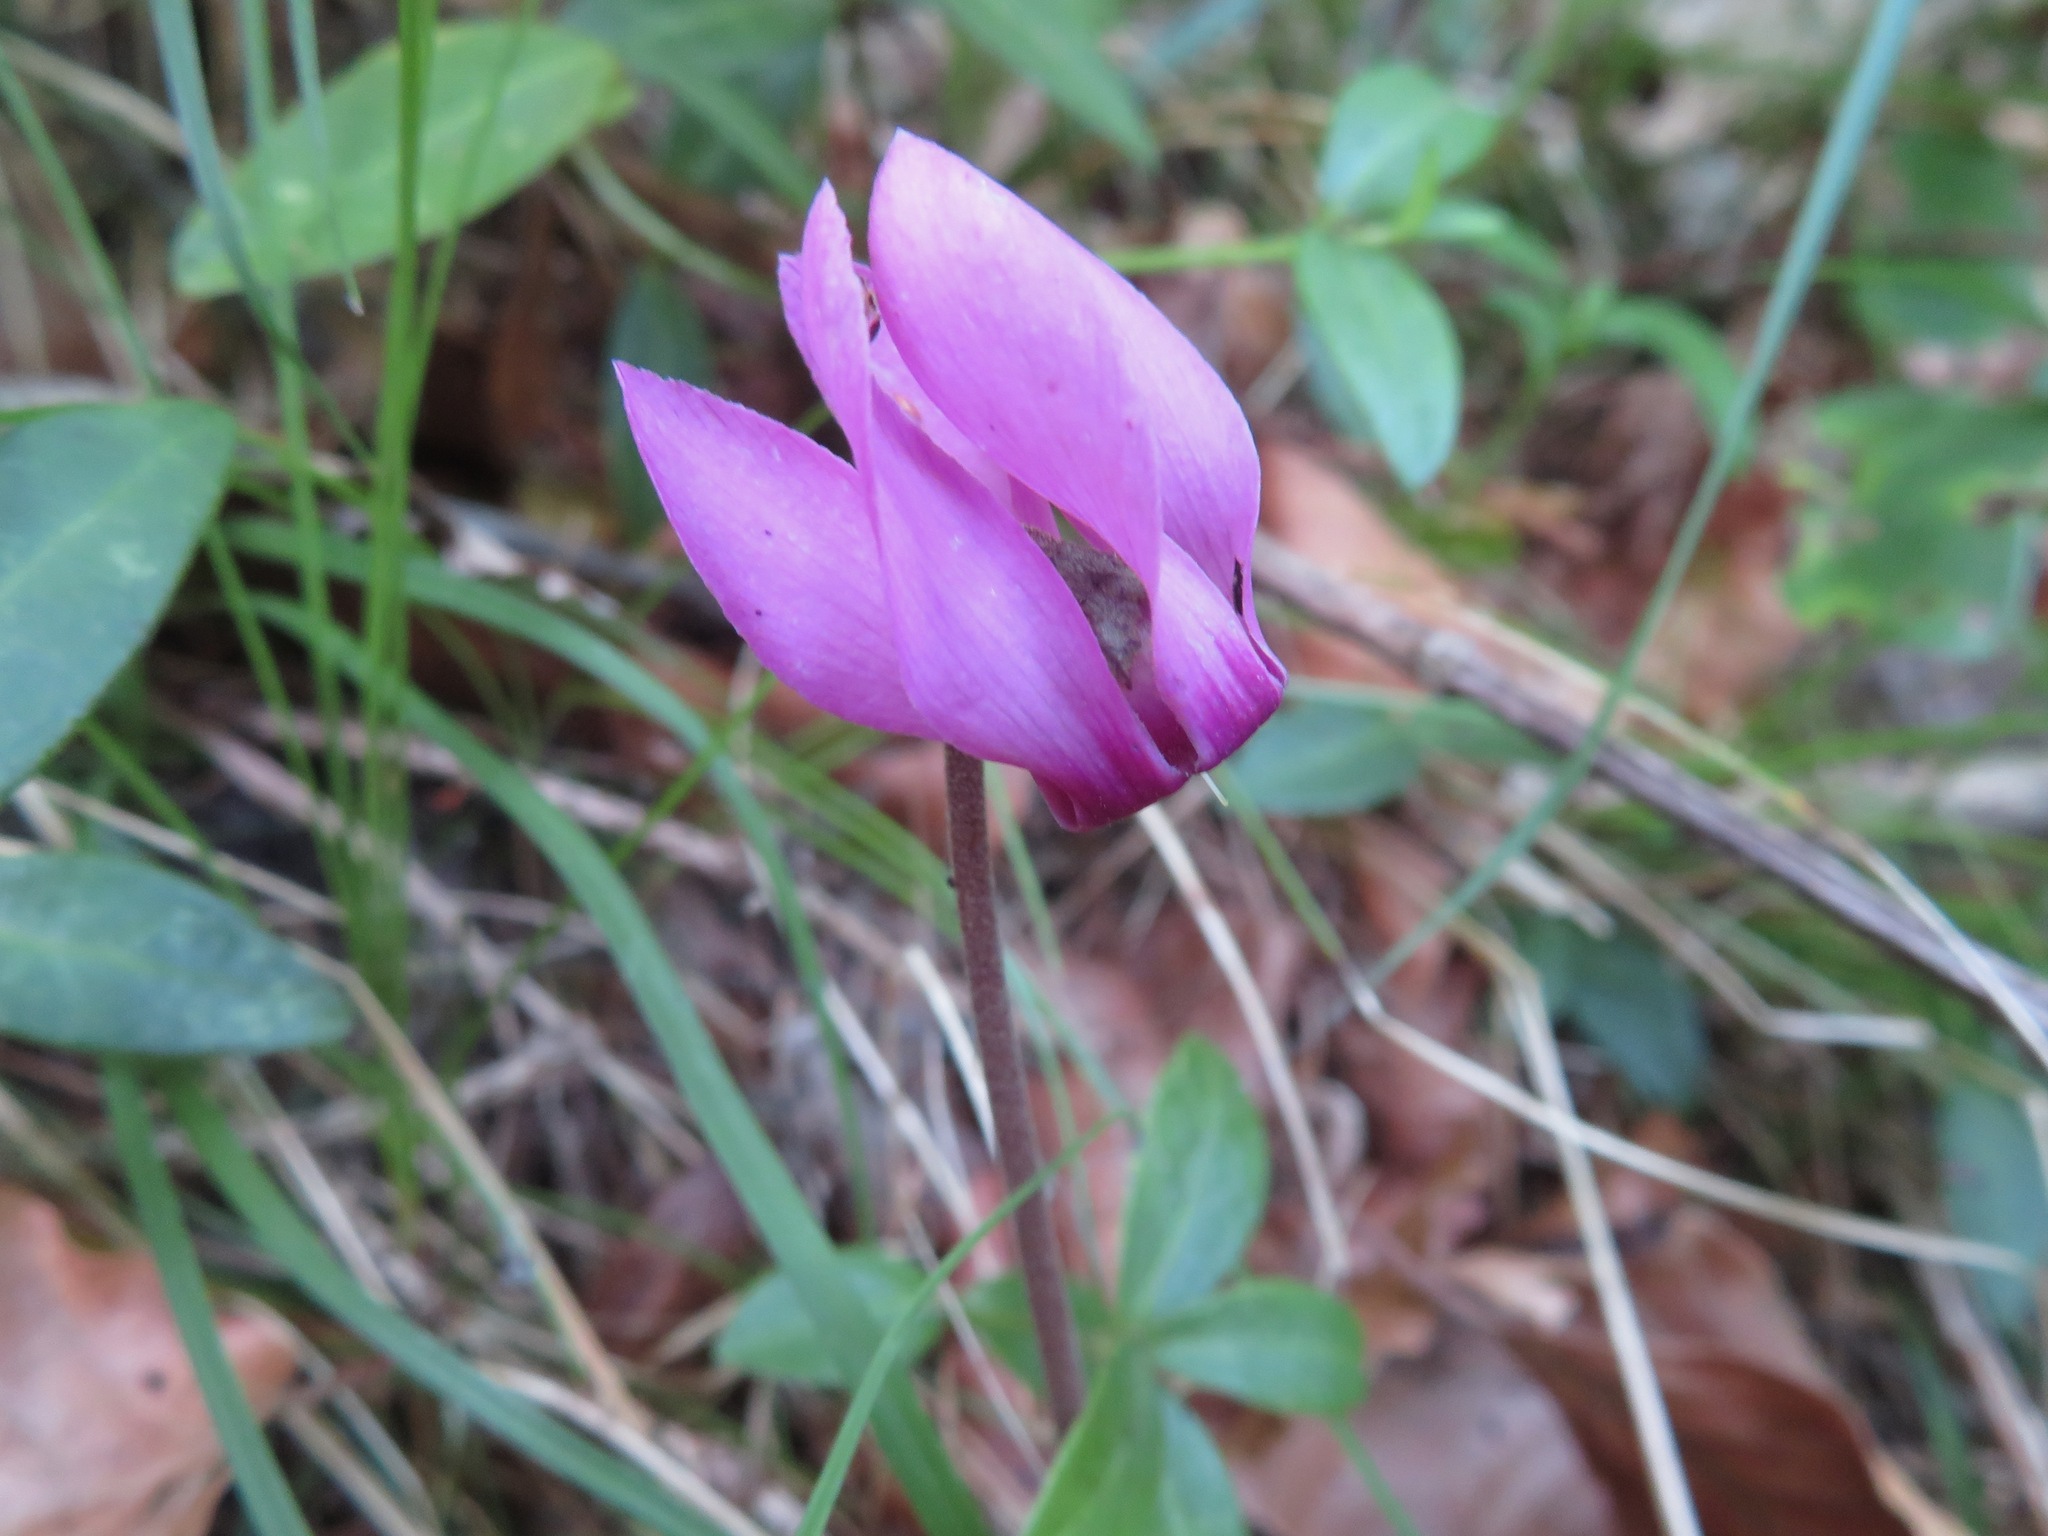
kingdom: Plantae
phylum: Tracheophyta
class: Magnoliopsida
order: Ericales
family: Primulaceae
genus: Cyclamen
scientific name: Cyclamen purpurascens
